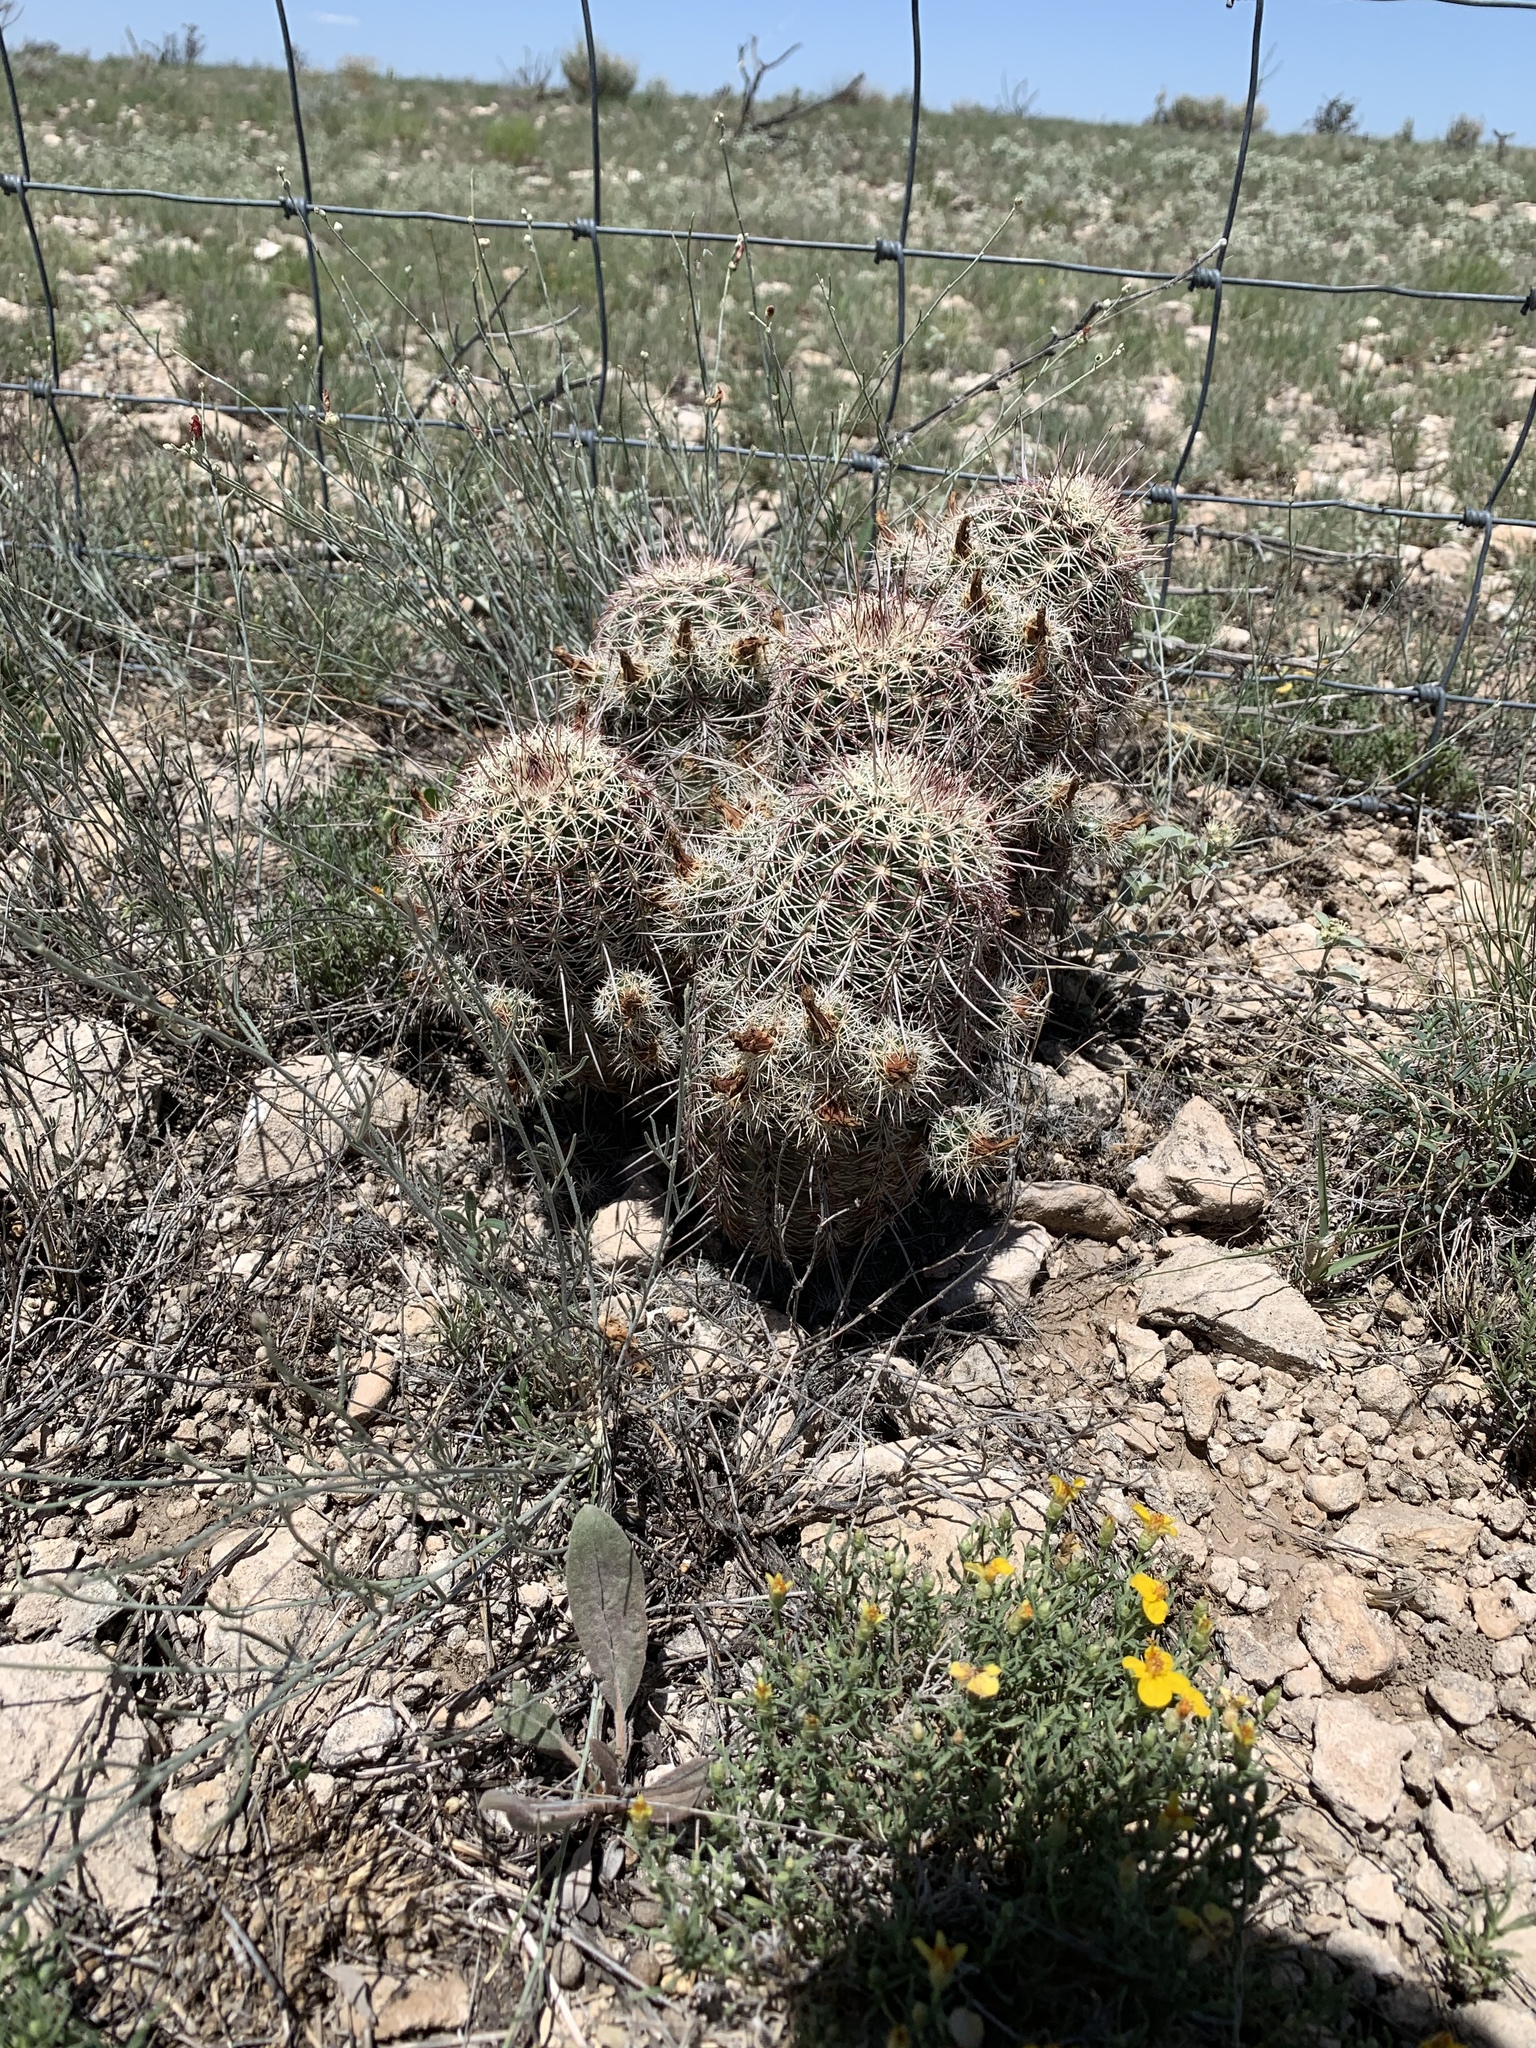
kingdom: Plantae
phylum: Tracheophyta
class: Magnoliopsida
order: Caryophyllales
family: Cactaceae
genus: Echinocereus
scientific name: Echinocereus viridiflorus
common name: Nylon hedgehog cactus
